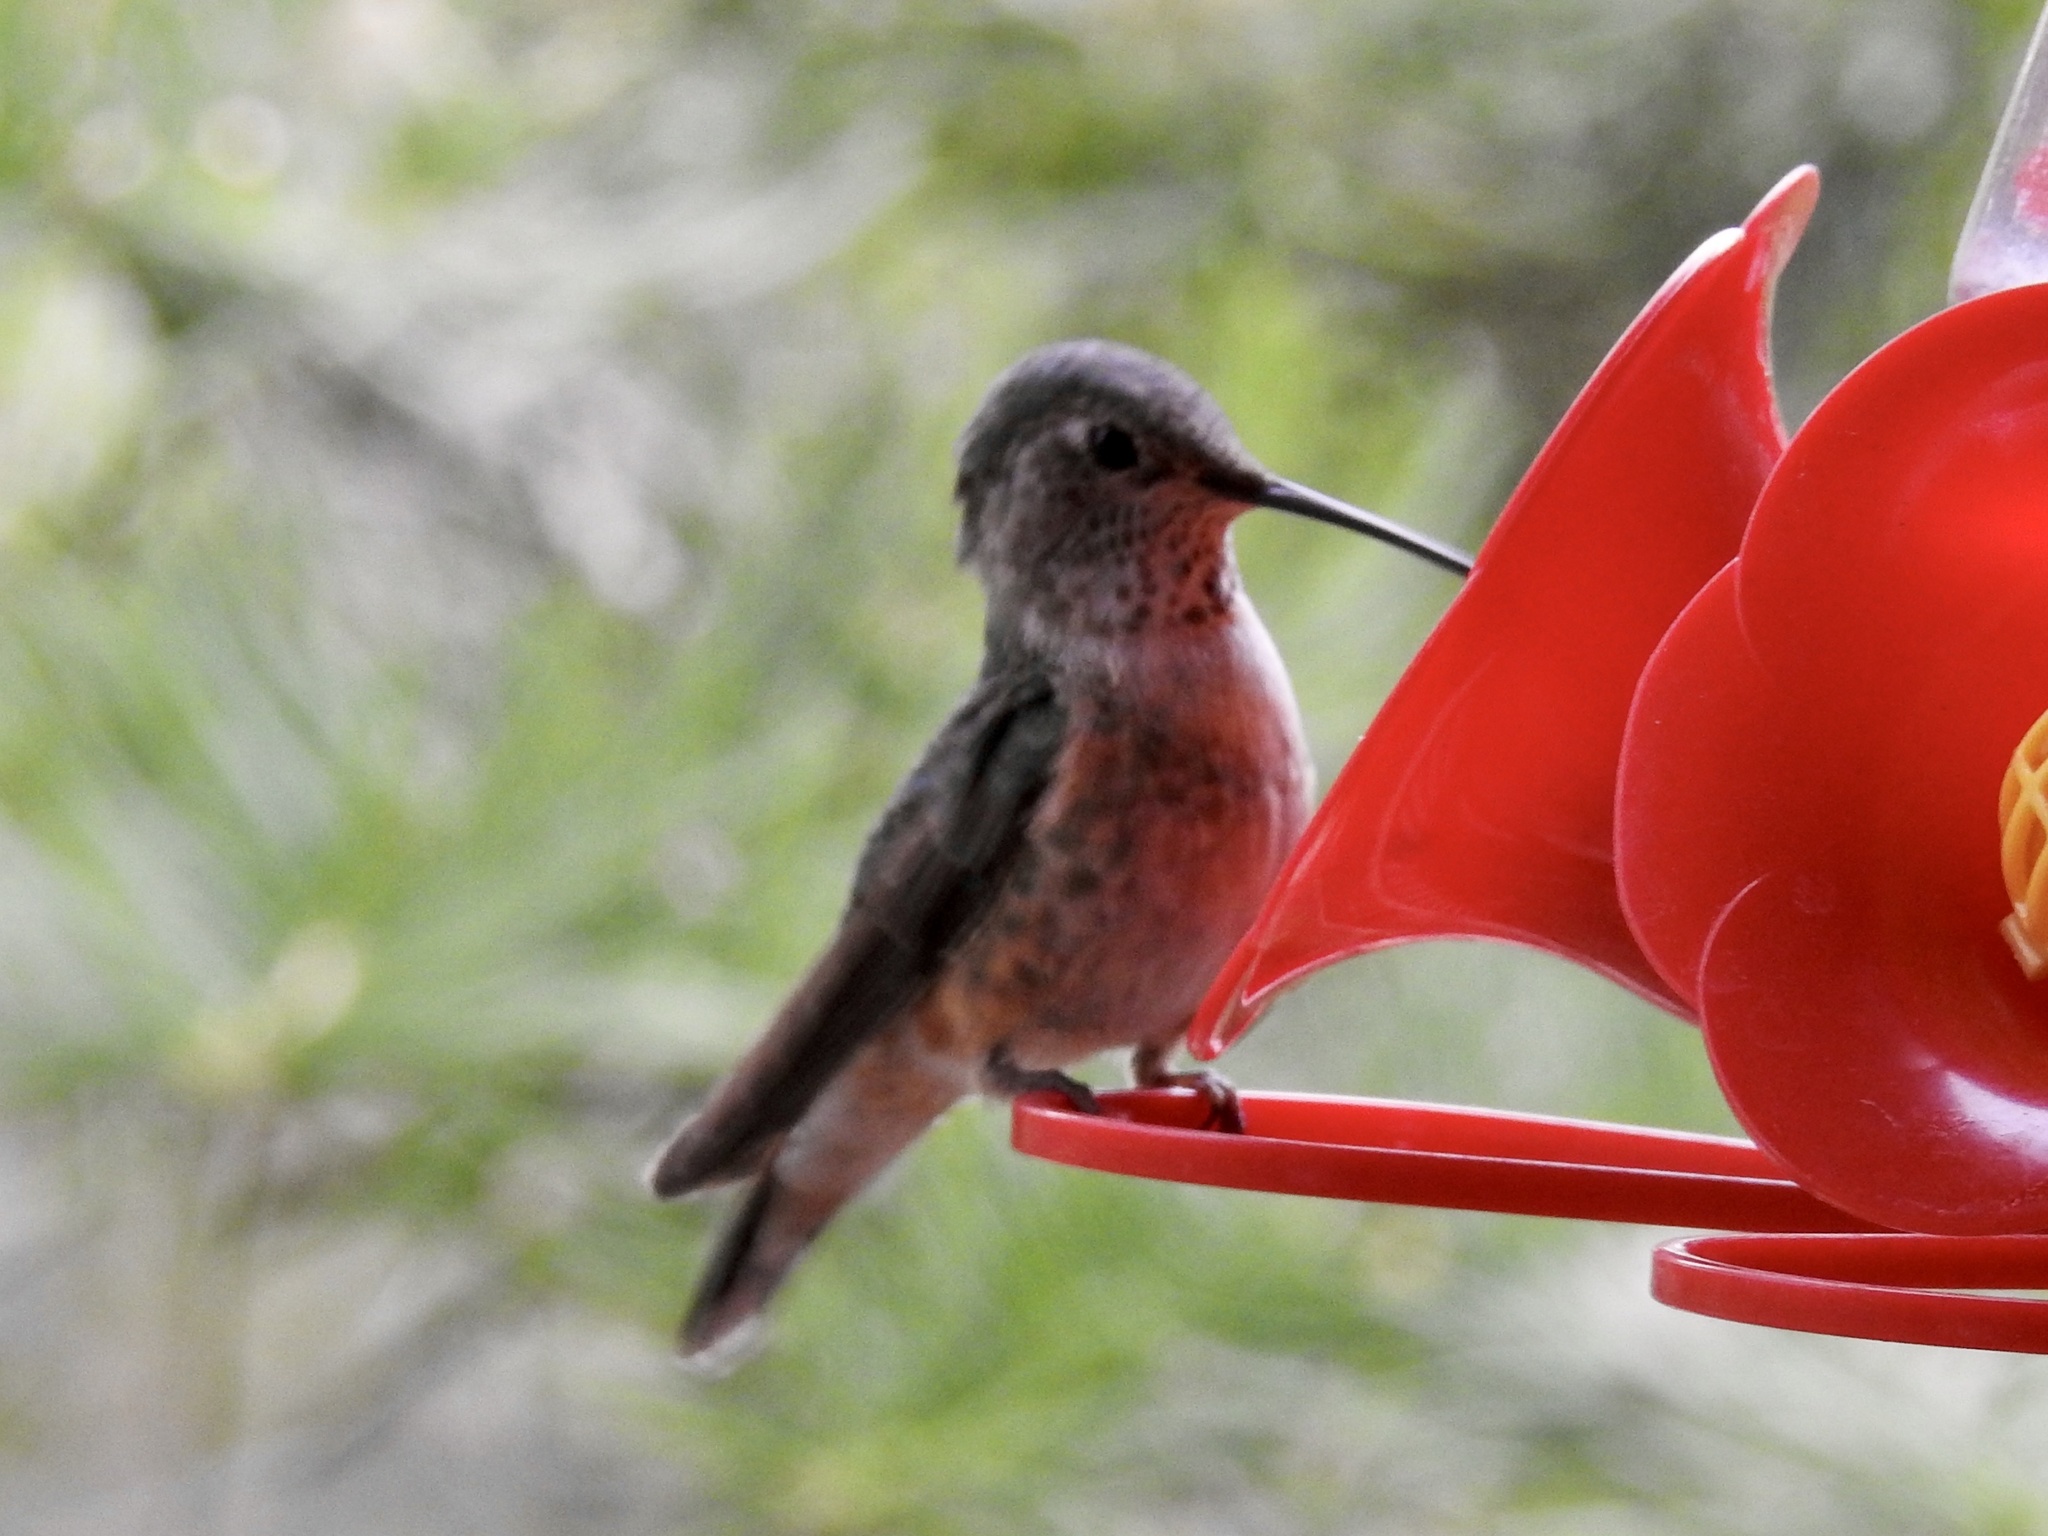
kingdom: Animalia
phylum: Chordata
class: Aves
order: Apodiformes
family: Trochilidae
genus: Selasphorus
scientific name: Selasphorus platycercus
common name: Broad-tailed hummingbird
